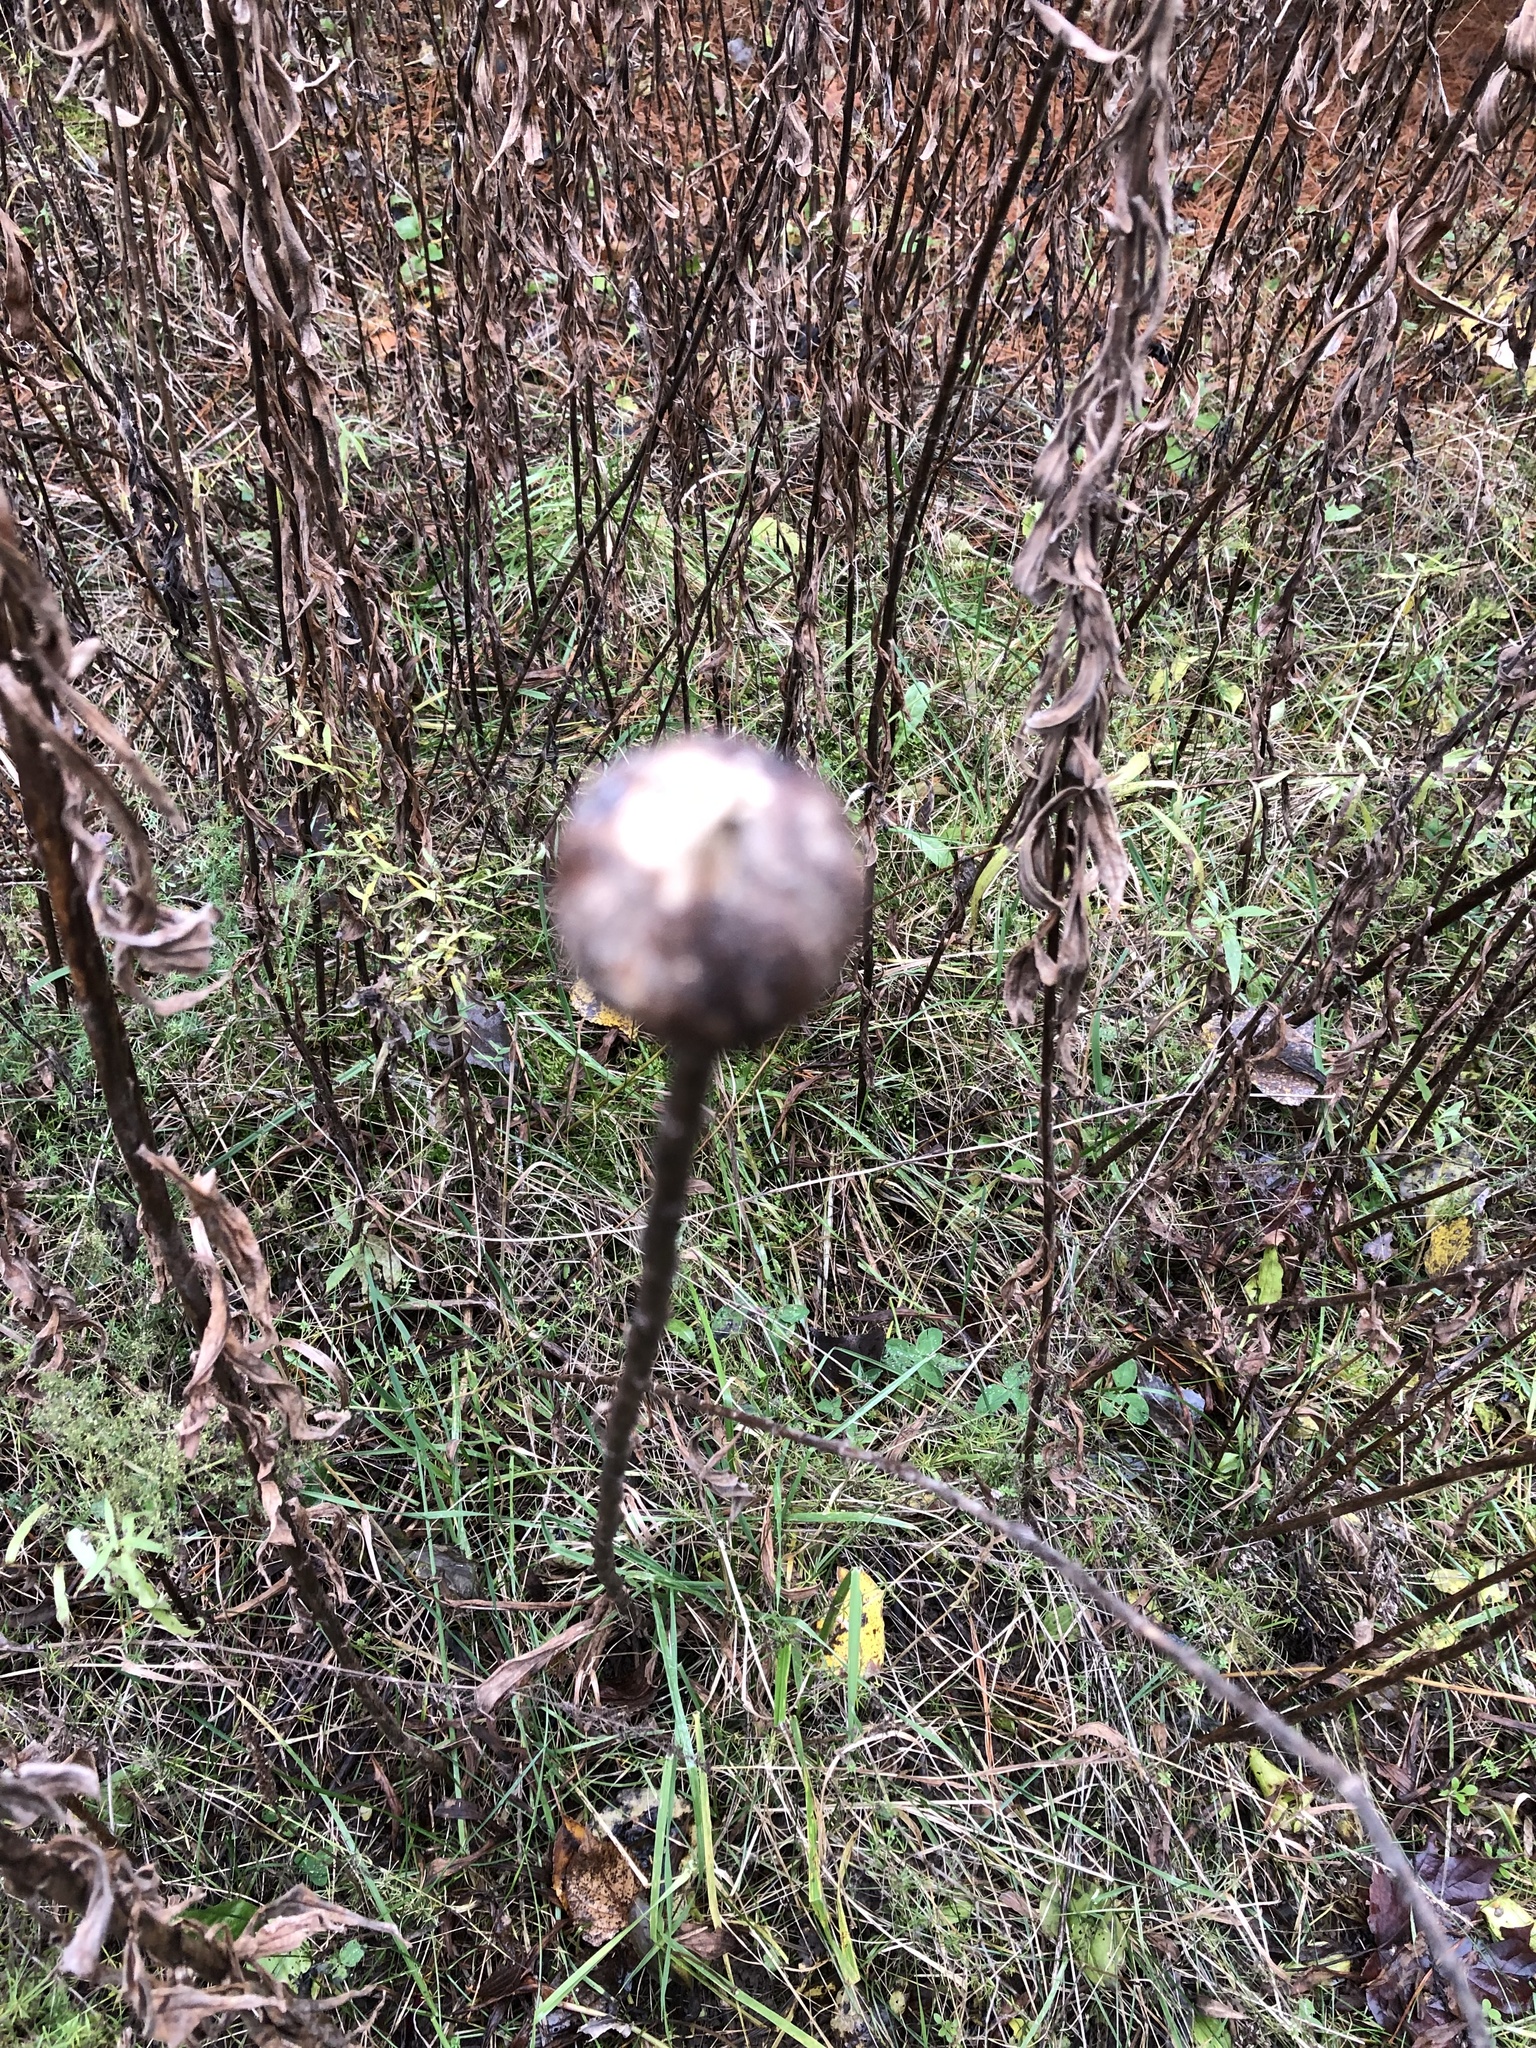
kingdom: Animalia
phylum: Arthropoda
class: Insecta
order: Diptera
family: Tephritidae
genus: Eurosta
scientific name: Eurosta solidaginis
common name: Goldenrod gall fly
